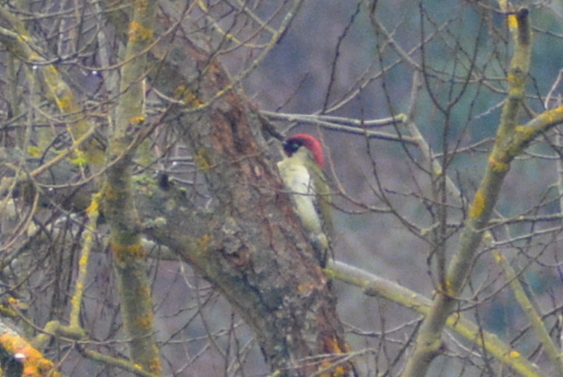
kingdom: Animalia
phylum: Chordata
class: Aves
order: Piciformes
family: Picidae
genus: Picus
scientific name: Picus viridis
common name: European green woodpecker
